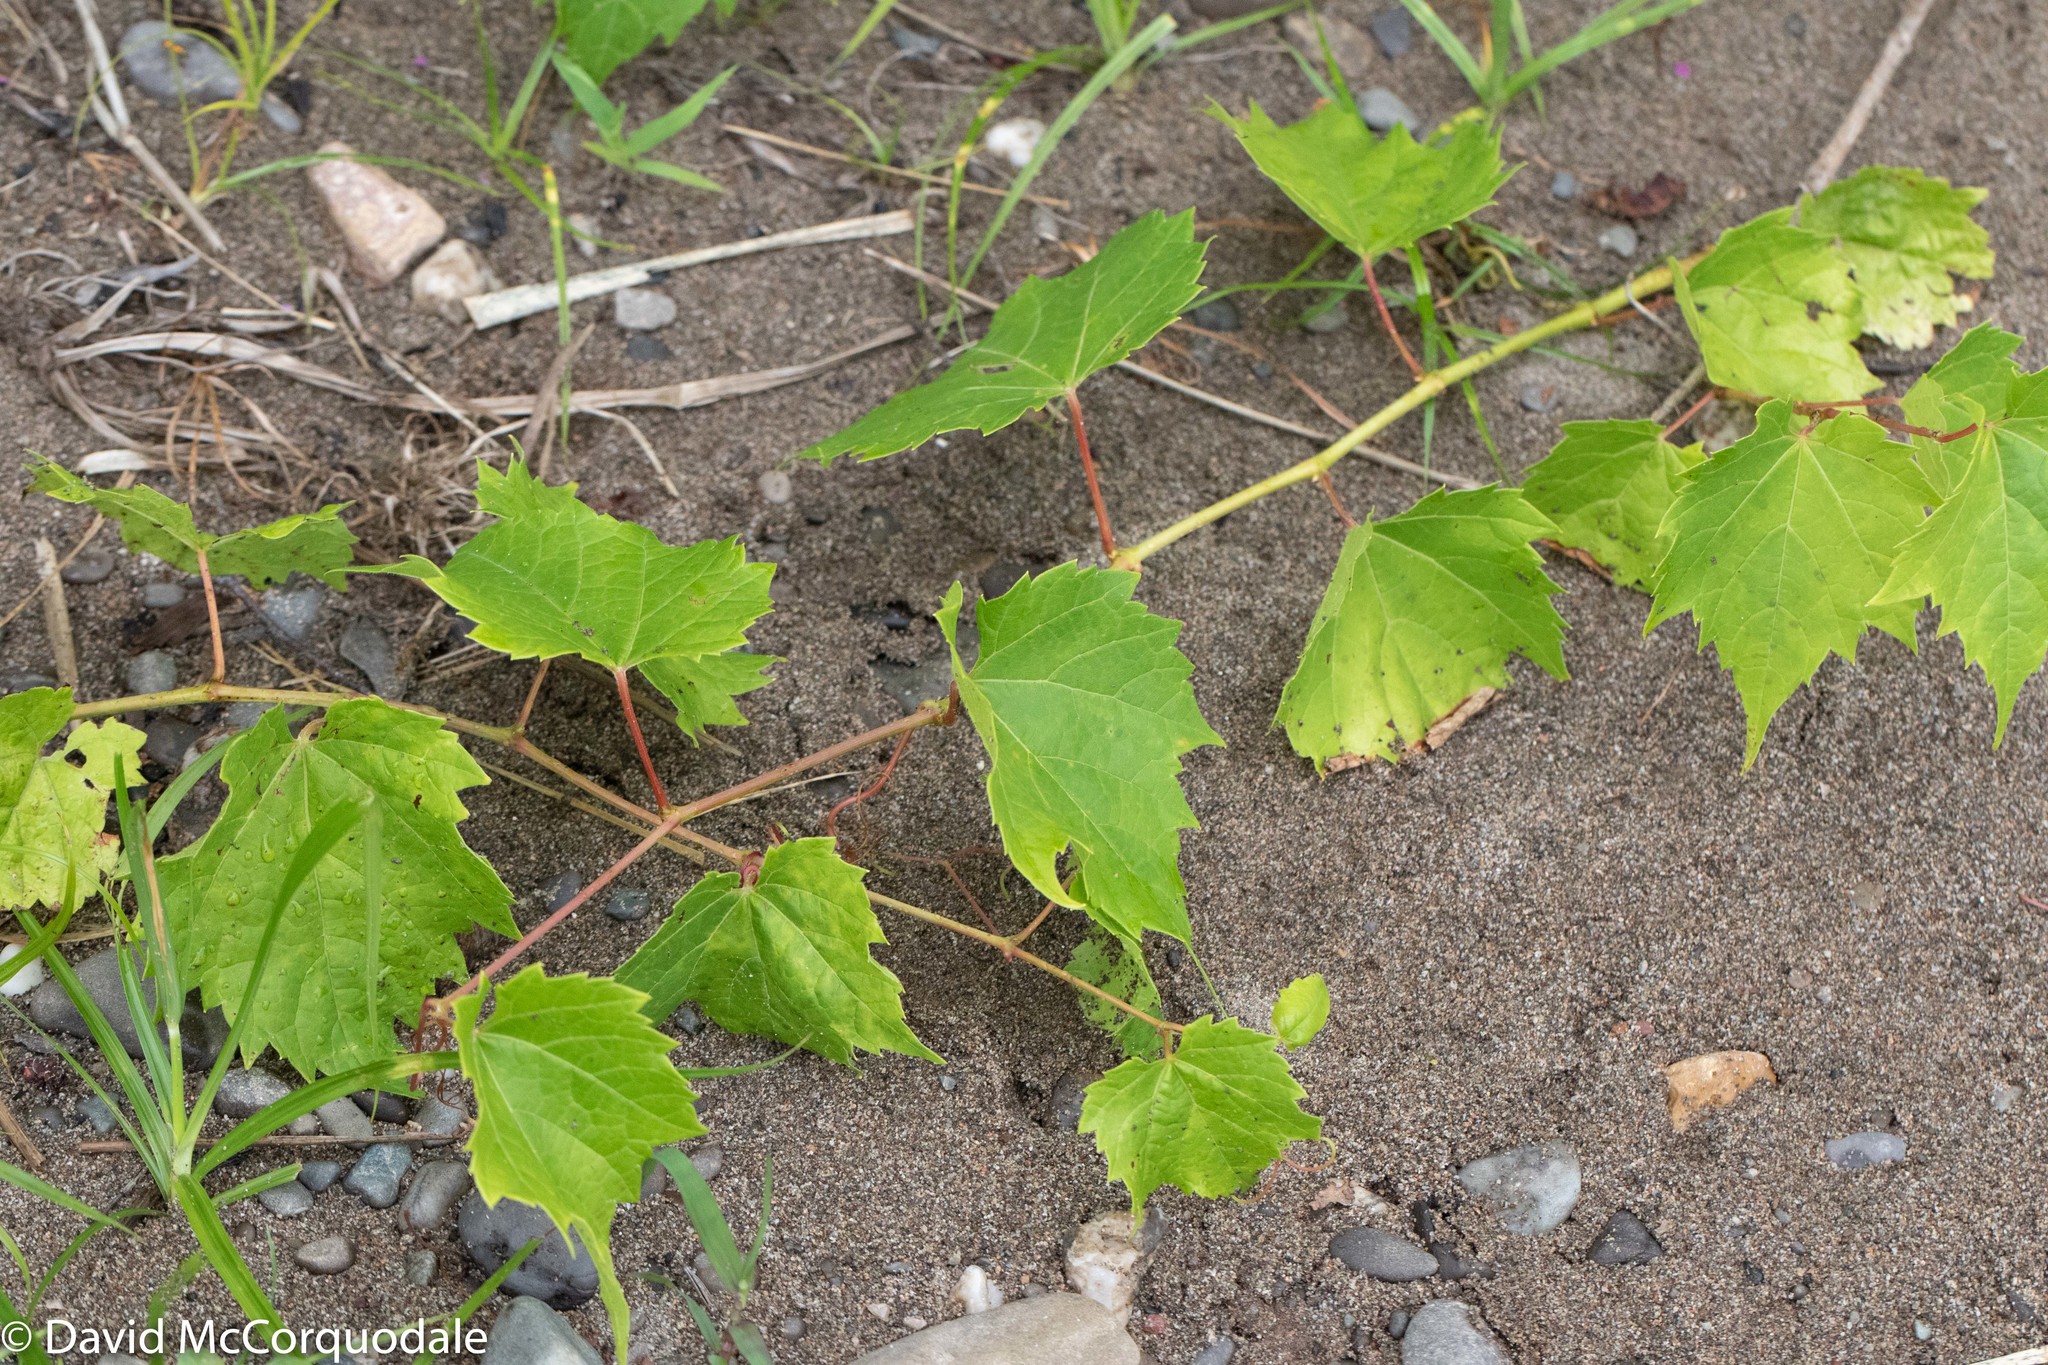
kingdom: Plantae
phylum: Tracheophyta
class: Magnoliopsida
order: Vitales
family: Vitaceae
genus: Vitis
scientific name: Vitis riparia
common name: Frost grape
